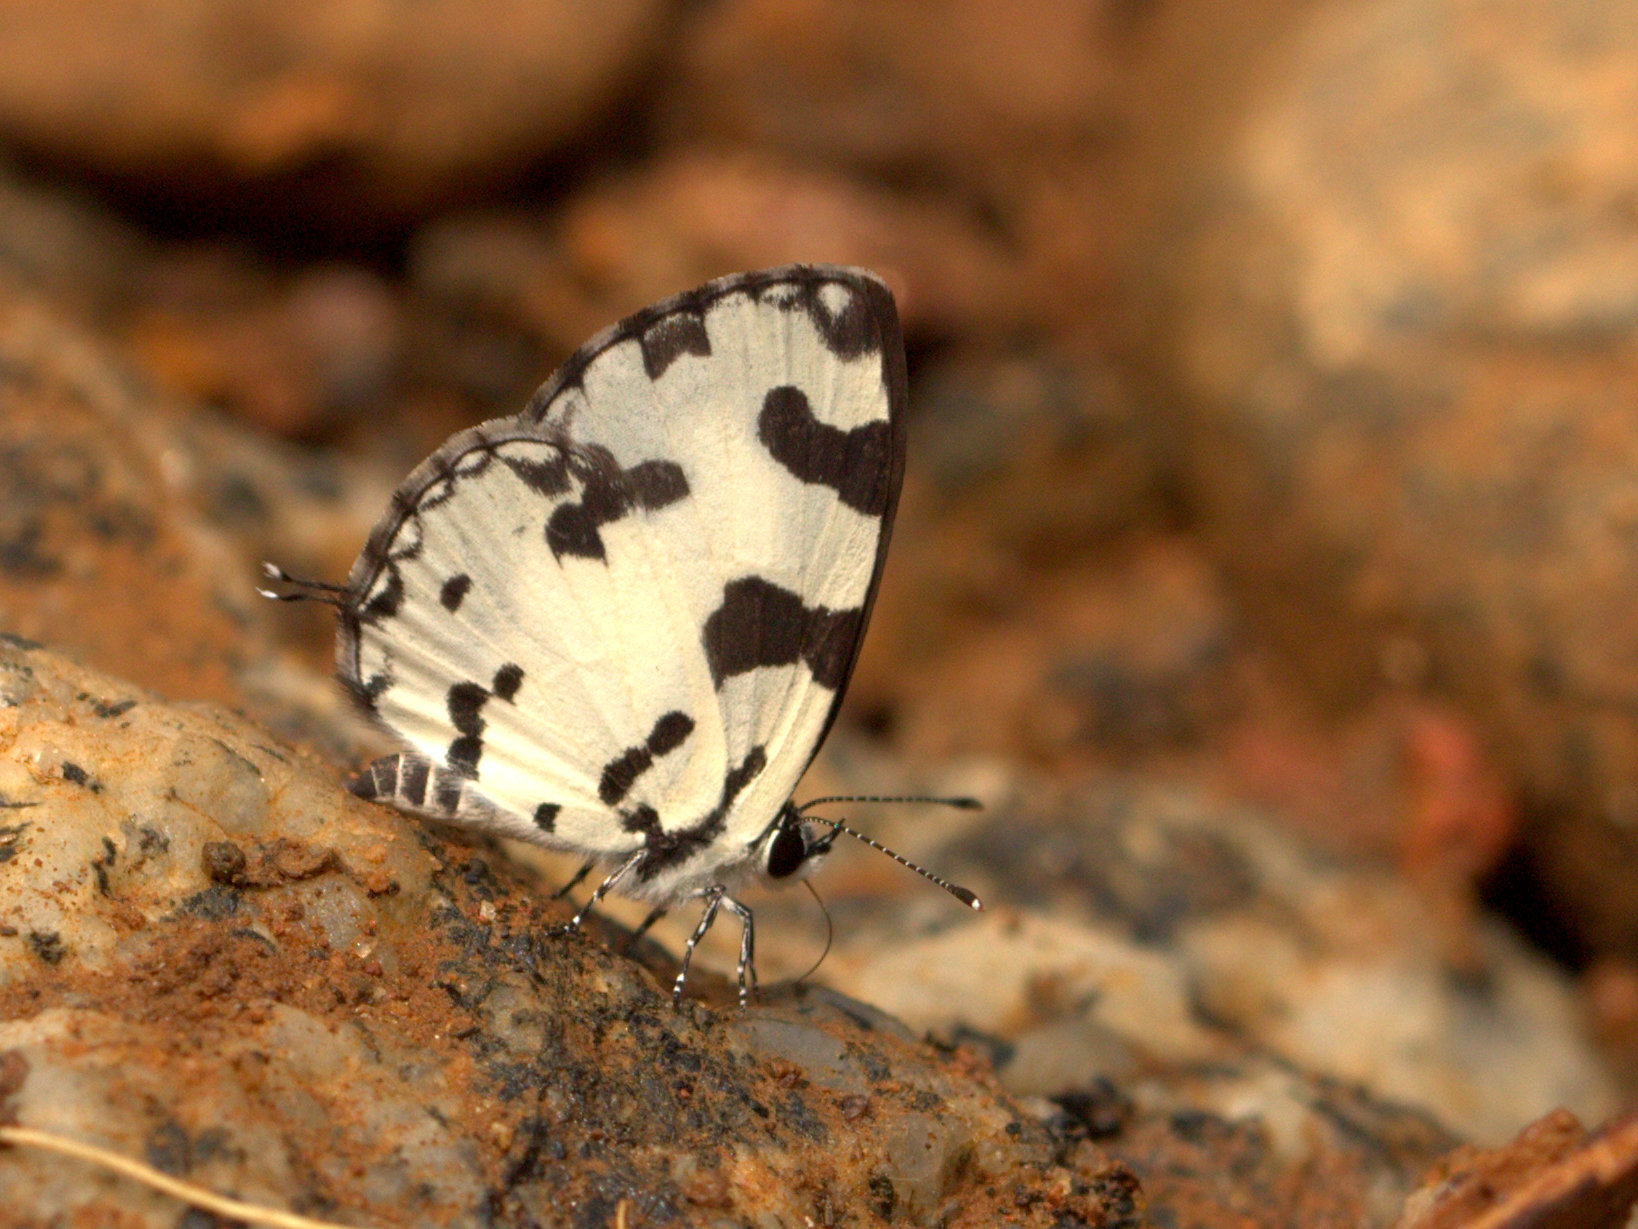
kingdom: Animalia
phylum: Arthropoda
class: Insecta
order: Lepidoptera
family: Lycaenidae
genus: Caleta
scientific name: Caleta decidia
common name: Angled pierrot
